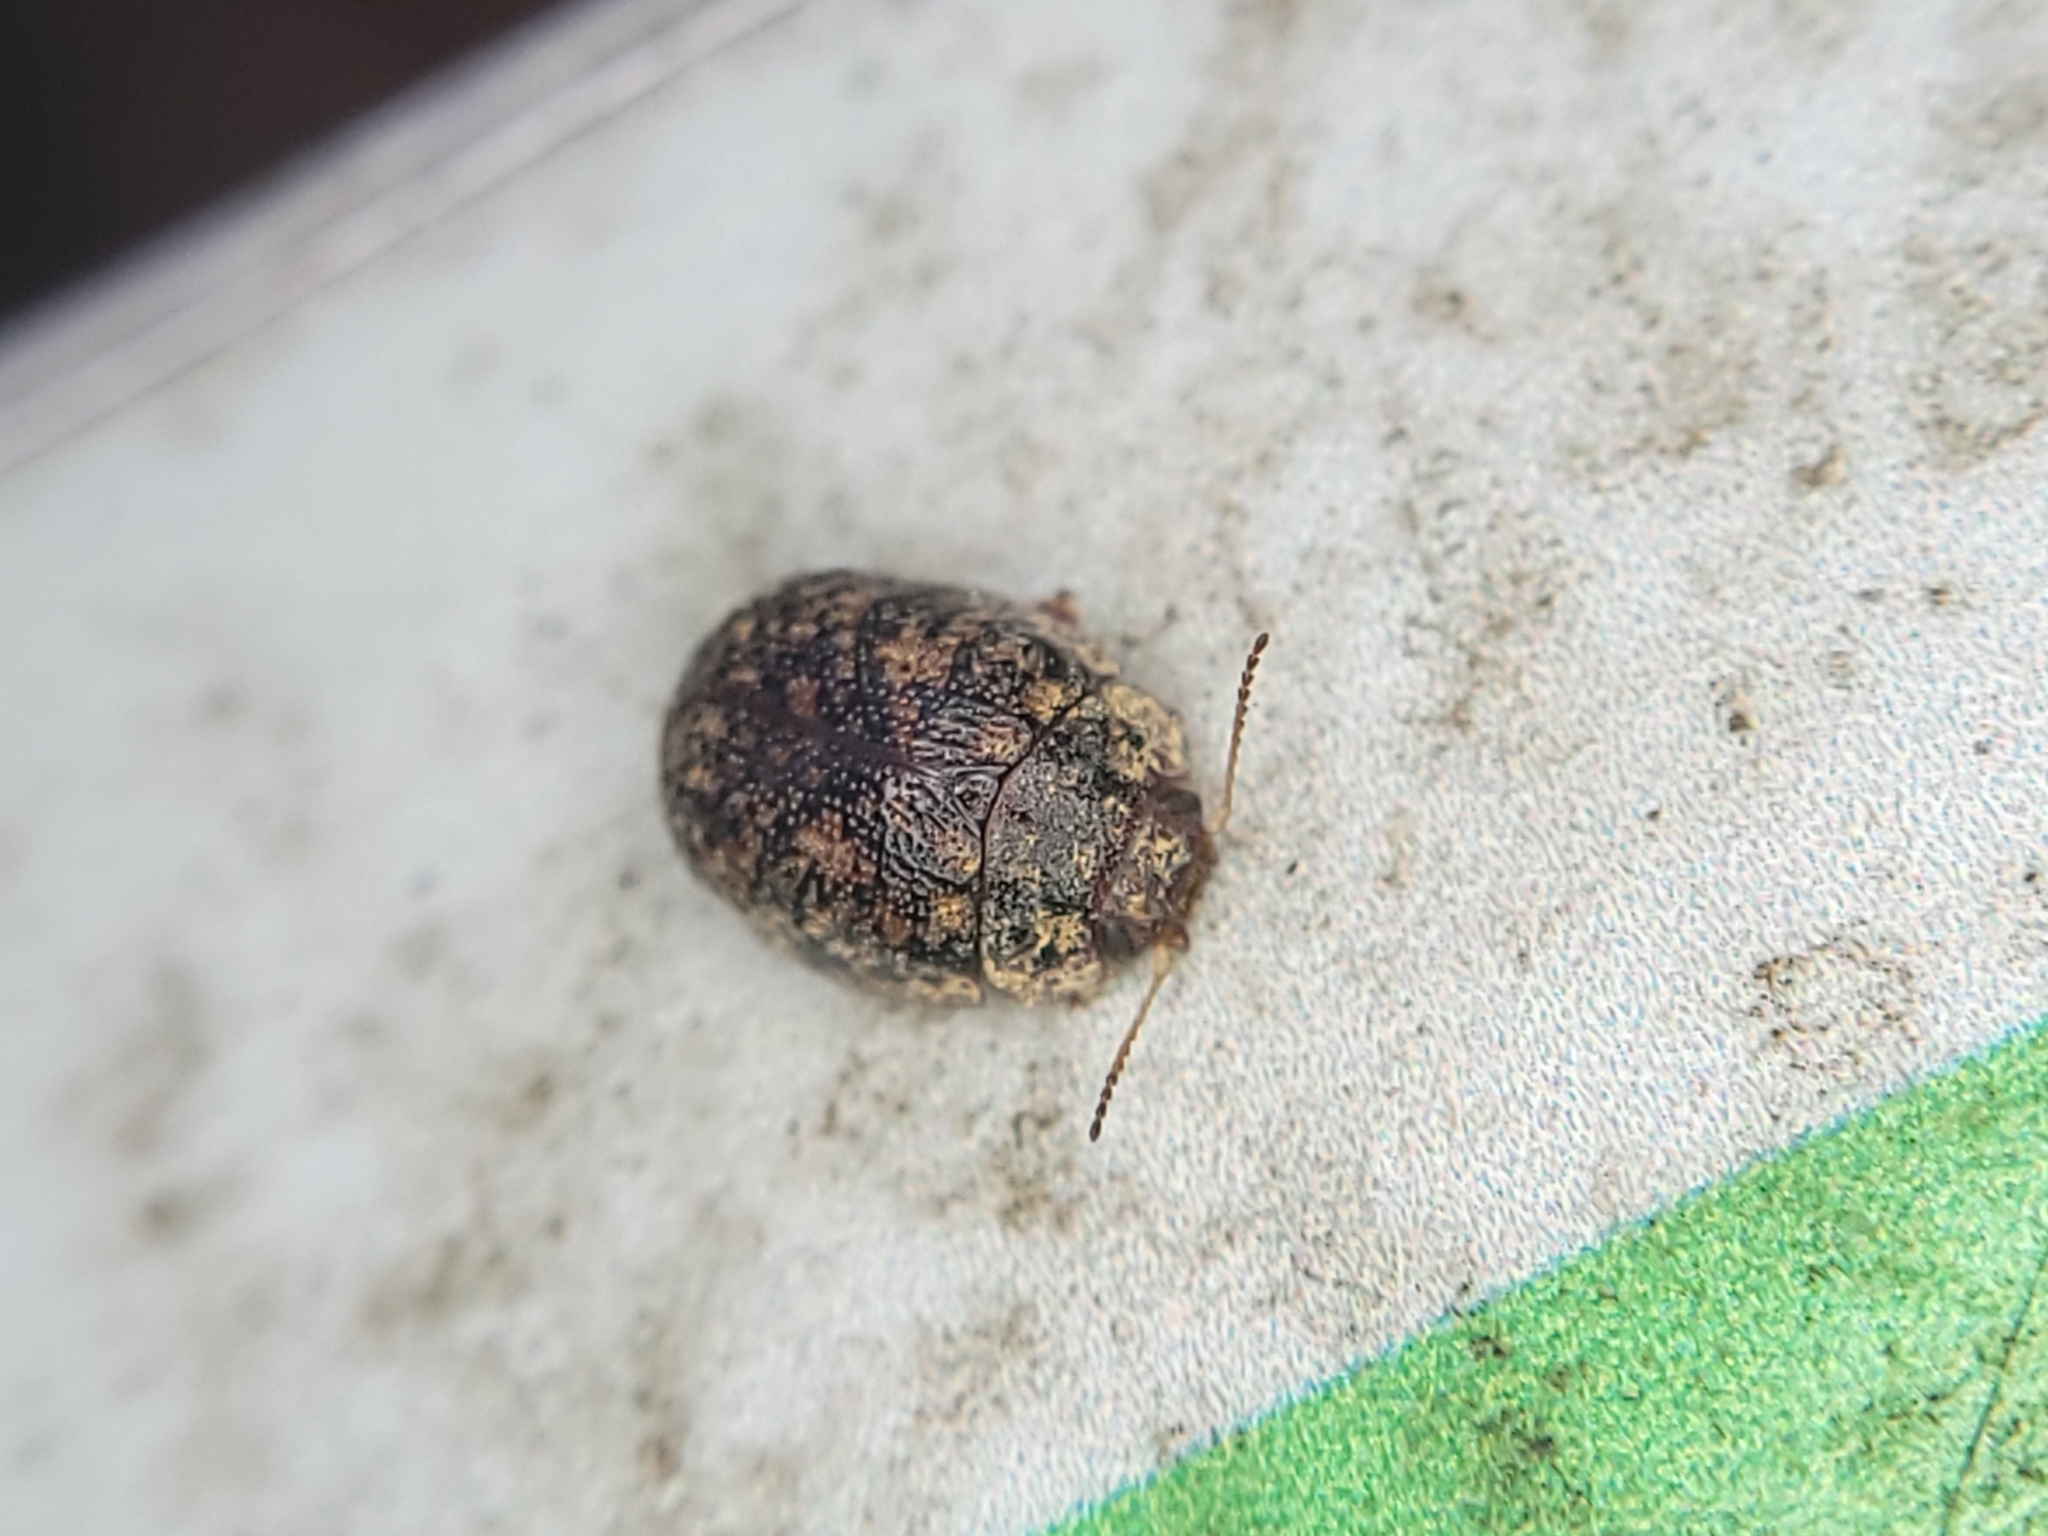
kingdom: Animalia
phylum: Arthropoda
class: Insecta
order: Coleoptera
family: Chrysomelidae
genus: Trachymela
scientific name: Trachymela sloanei
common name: Australian tortoise beetle
